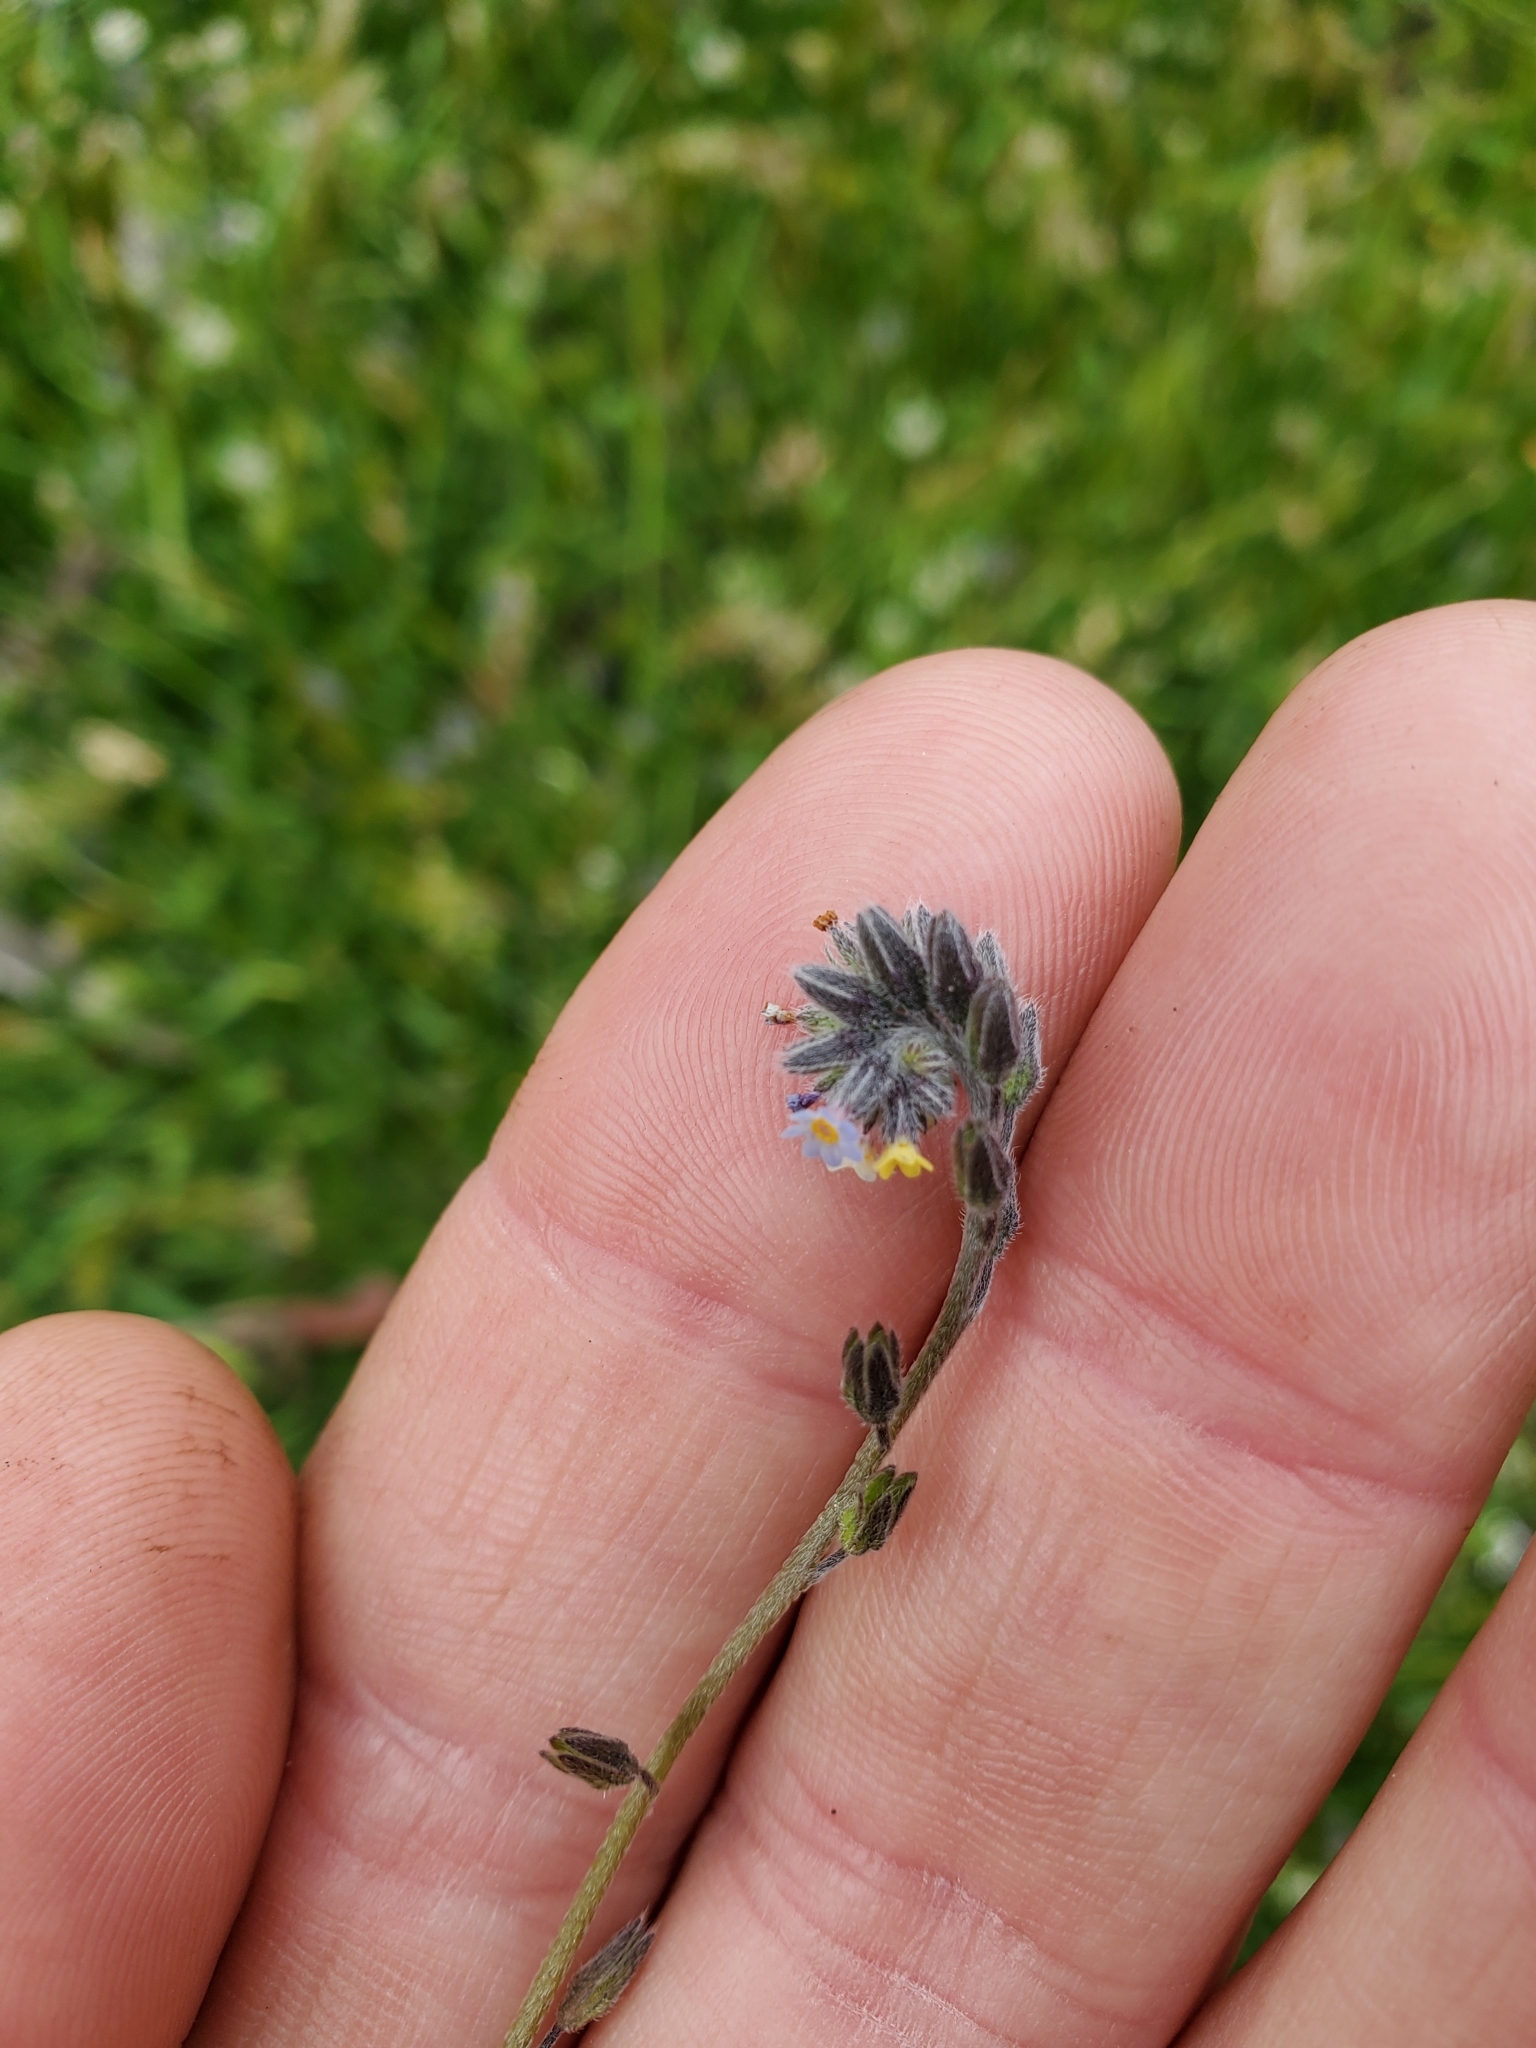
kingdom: Plantae
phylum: Tracheophyta
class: Magnoliopsida
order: Boraginales
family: Boraginaceae
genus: Myosotis
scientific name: Myosotis discolor
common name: Changing forget-me-not
